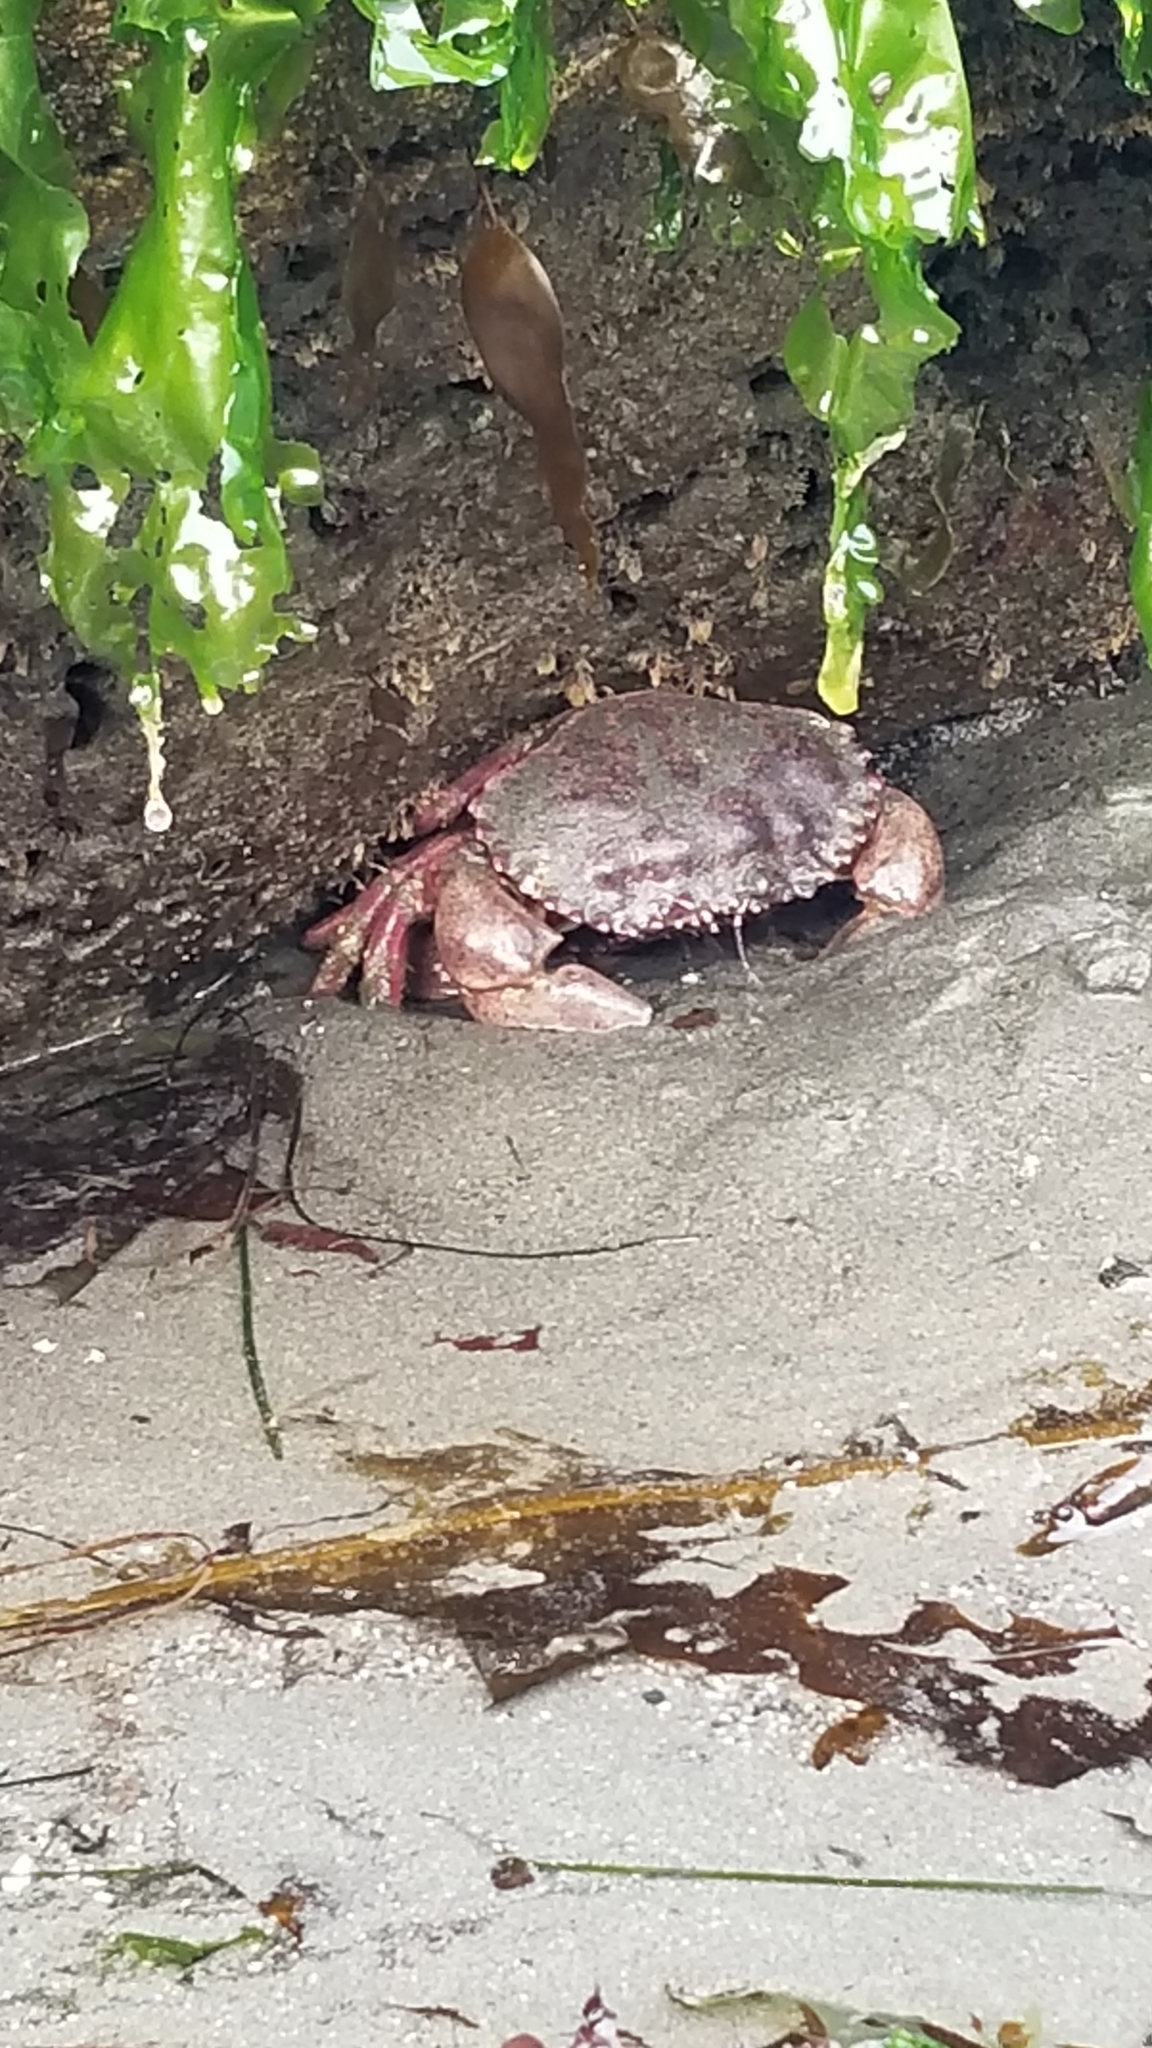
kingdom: Animalia
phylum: Arthropoda
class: Malacostraca
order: Decapoda
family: Cancridae
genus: Romaleon
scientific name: Romaleon antennarium
